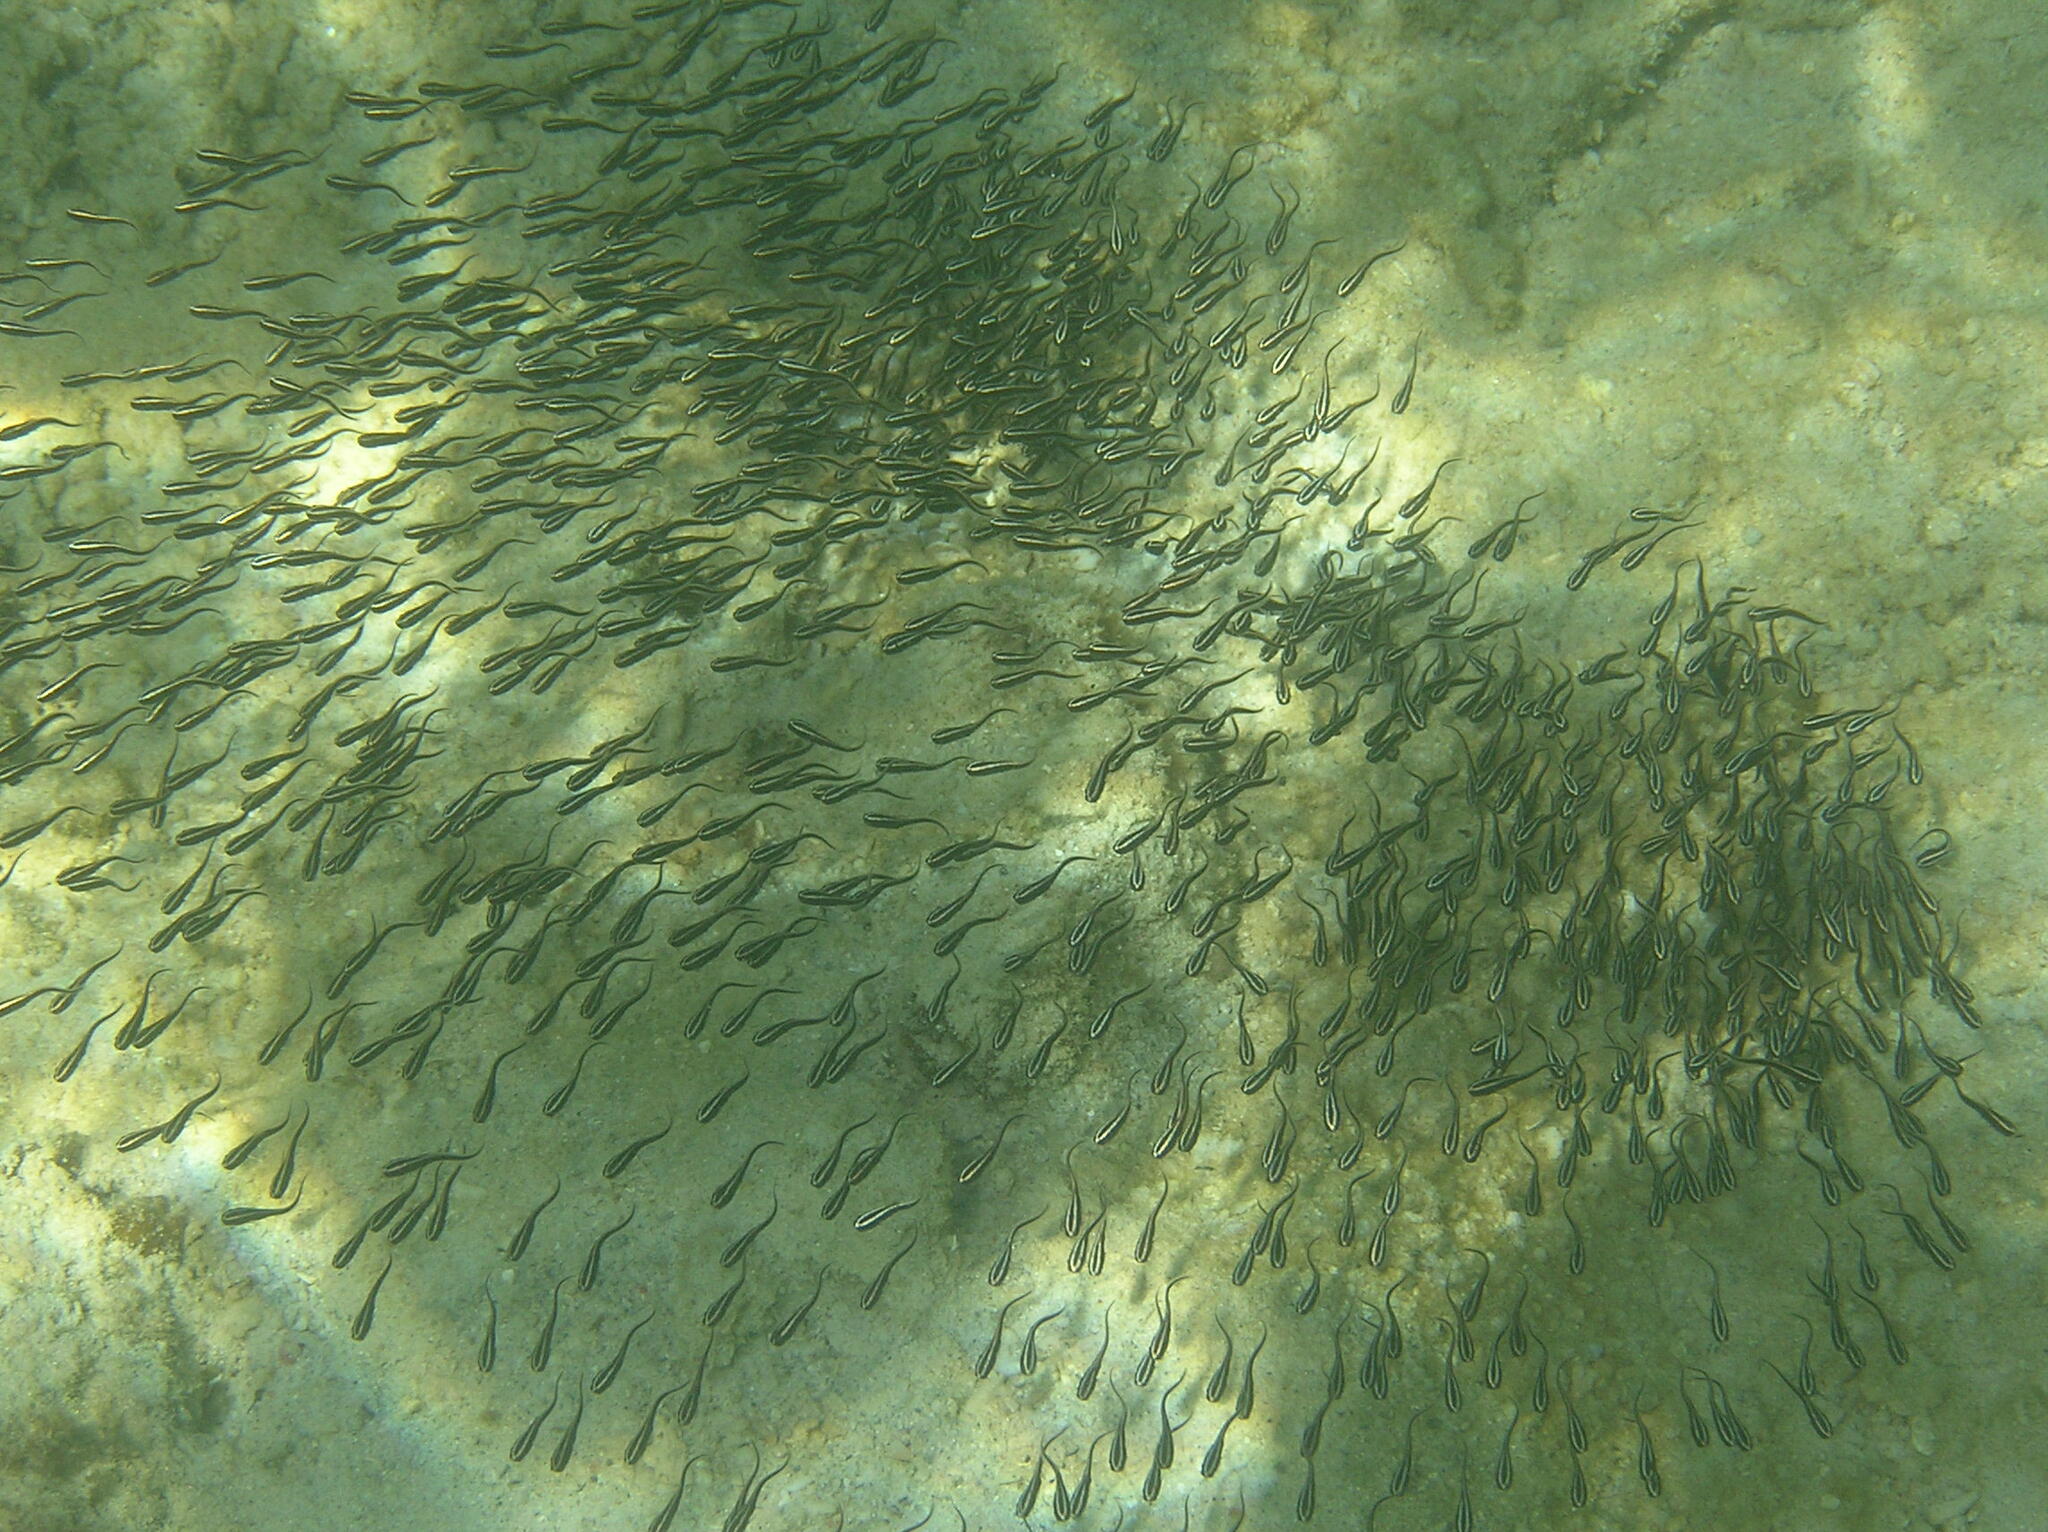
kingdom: Animalia
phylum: Chordata
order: Siluriformes
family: Plotosidae
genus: Plotosus
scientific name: Plotosus lineatus
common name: Striped eel catfish
